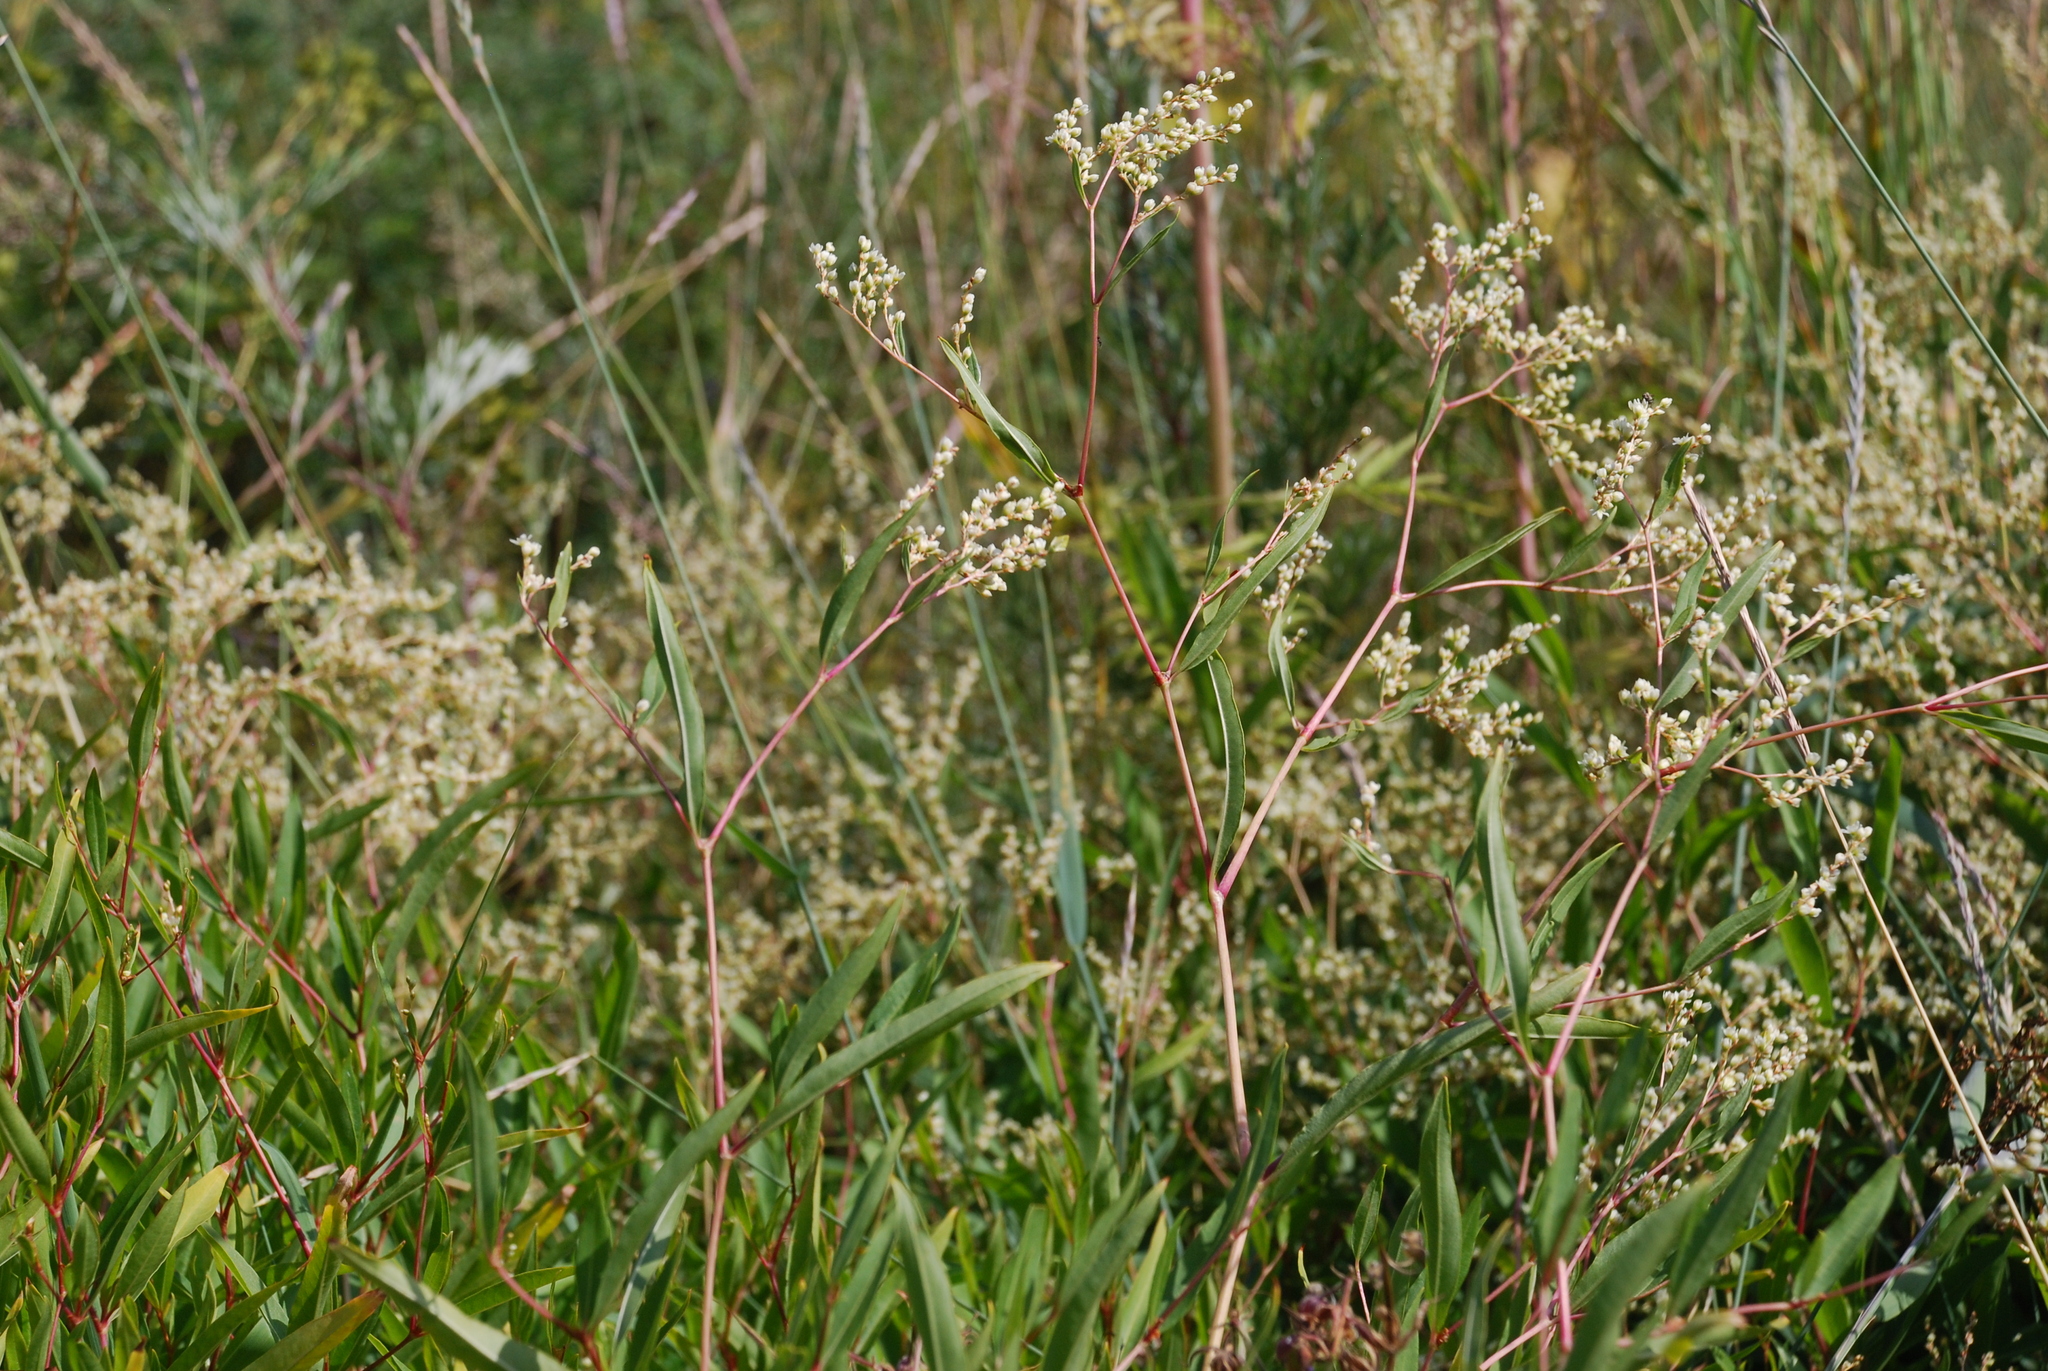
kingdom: Plantae
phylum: Tracheophyta
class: Magnoliopsida
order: Caryophyllales
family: Polygonaceae
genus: Koenigia
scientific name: Koenigia divaricata
